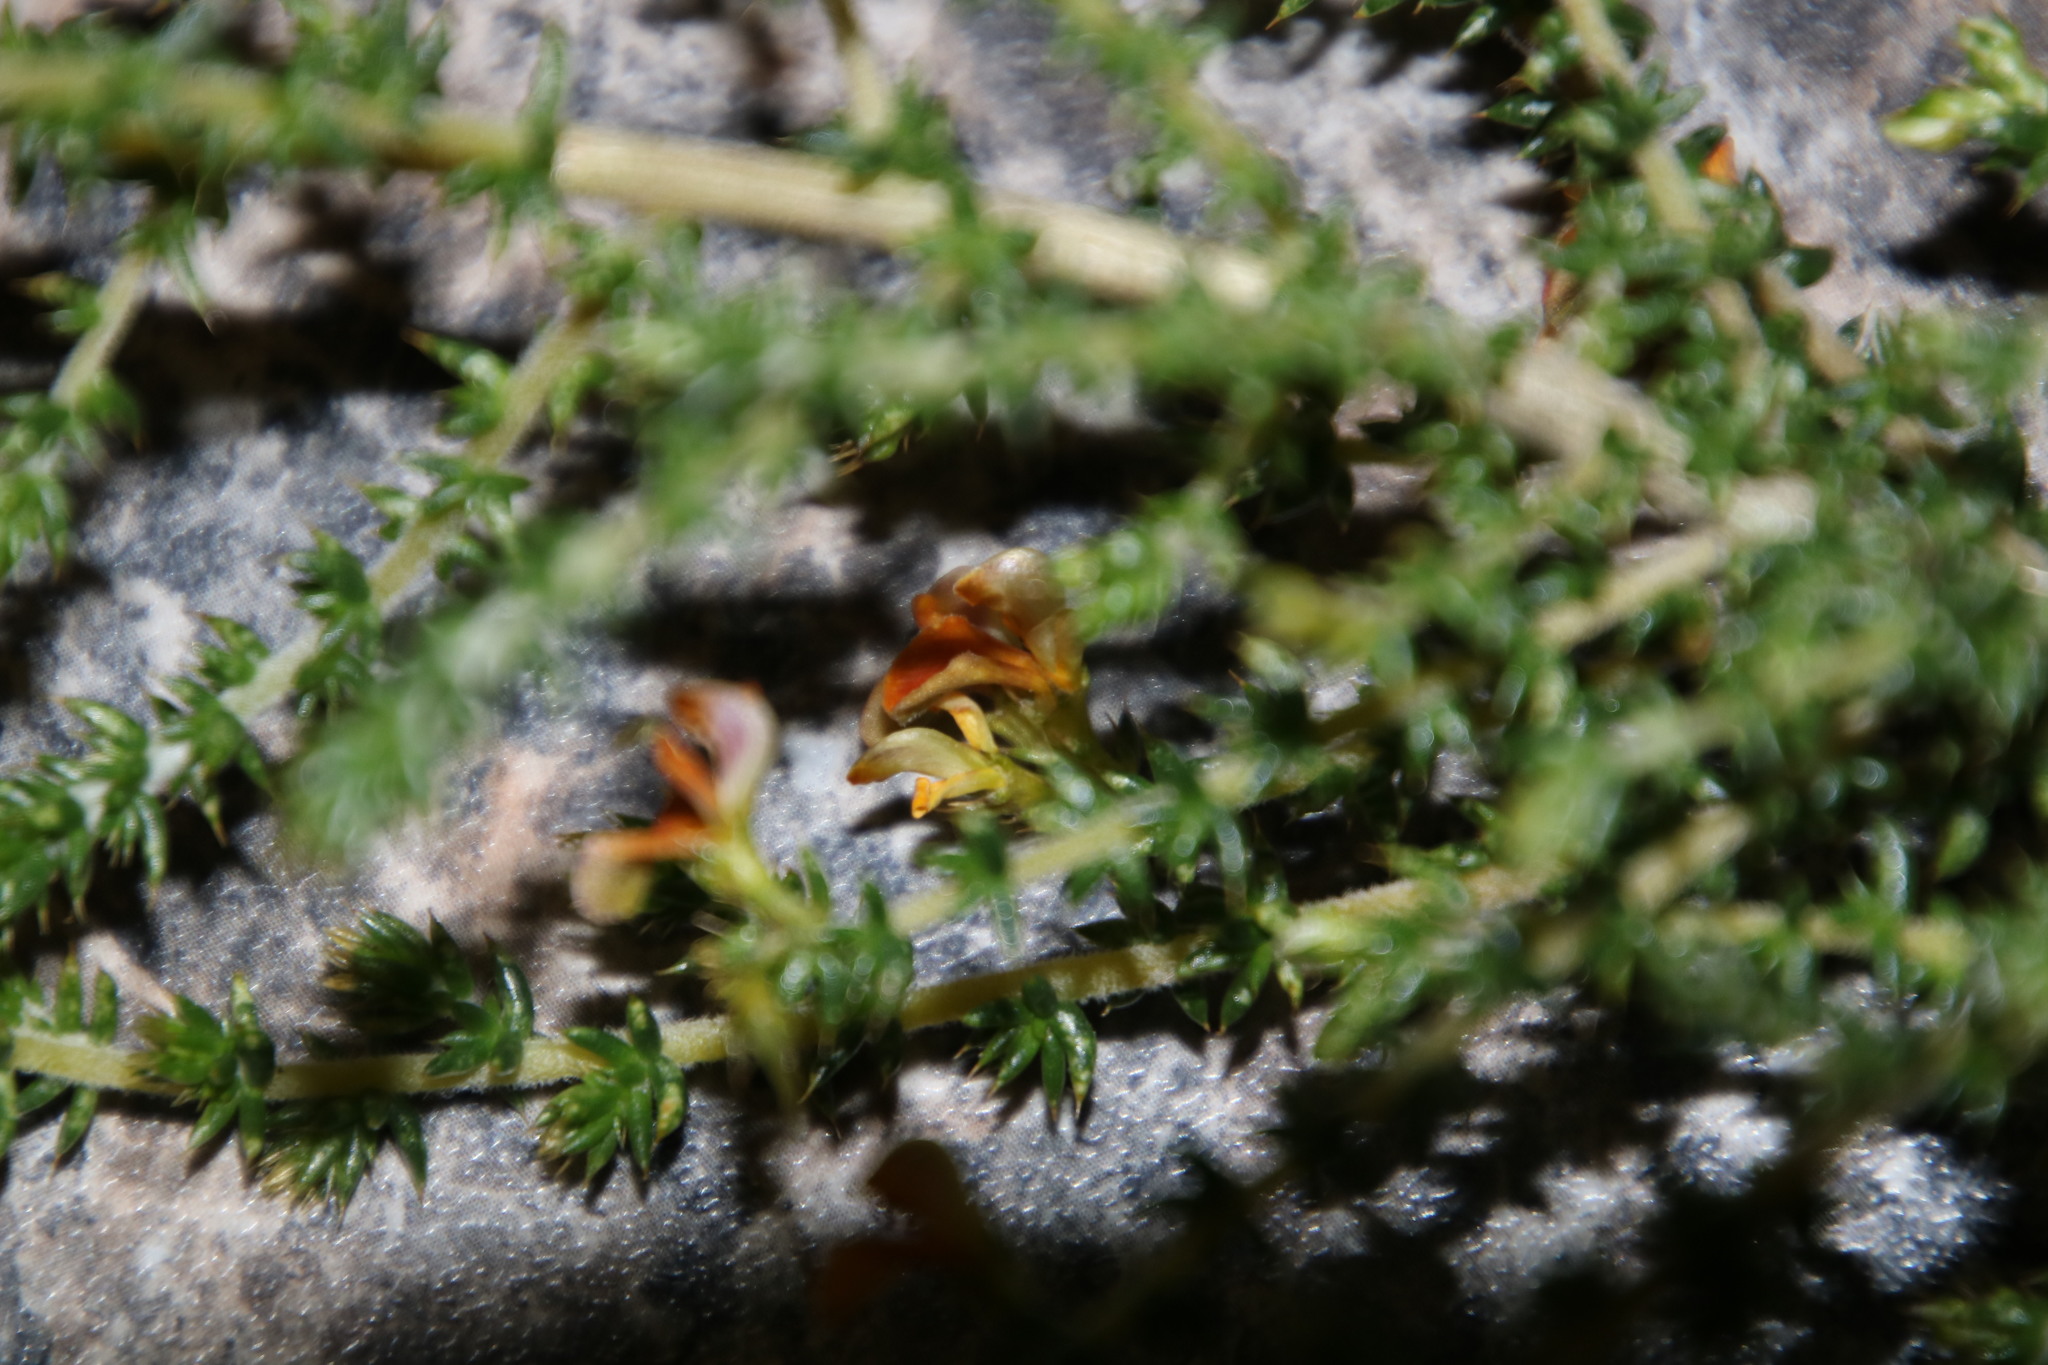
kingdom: Plantae
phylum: Tracheophyta
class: Magnoliopsida
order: Fabales
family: Fabaceae
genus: Aspalathus
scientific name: Aspalathus divaricata
